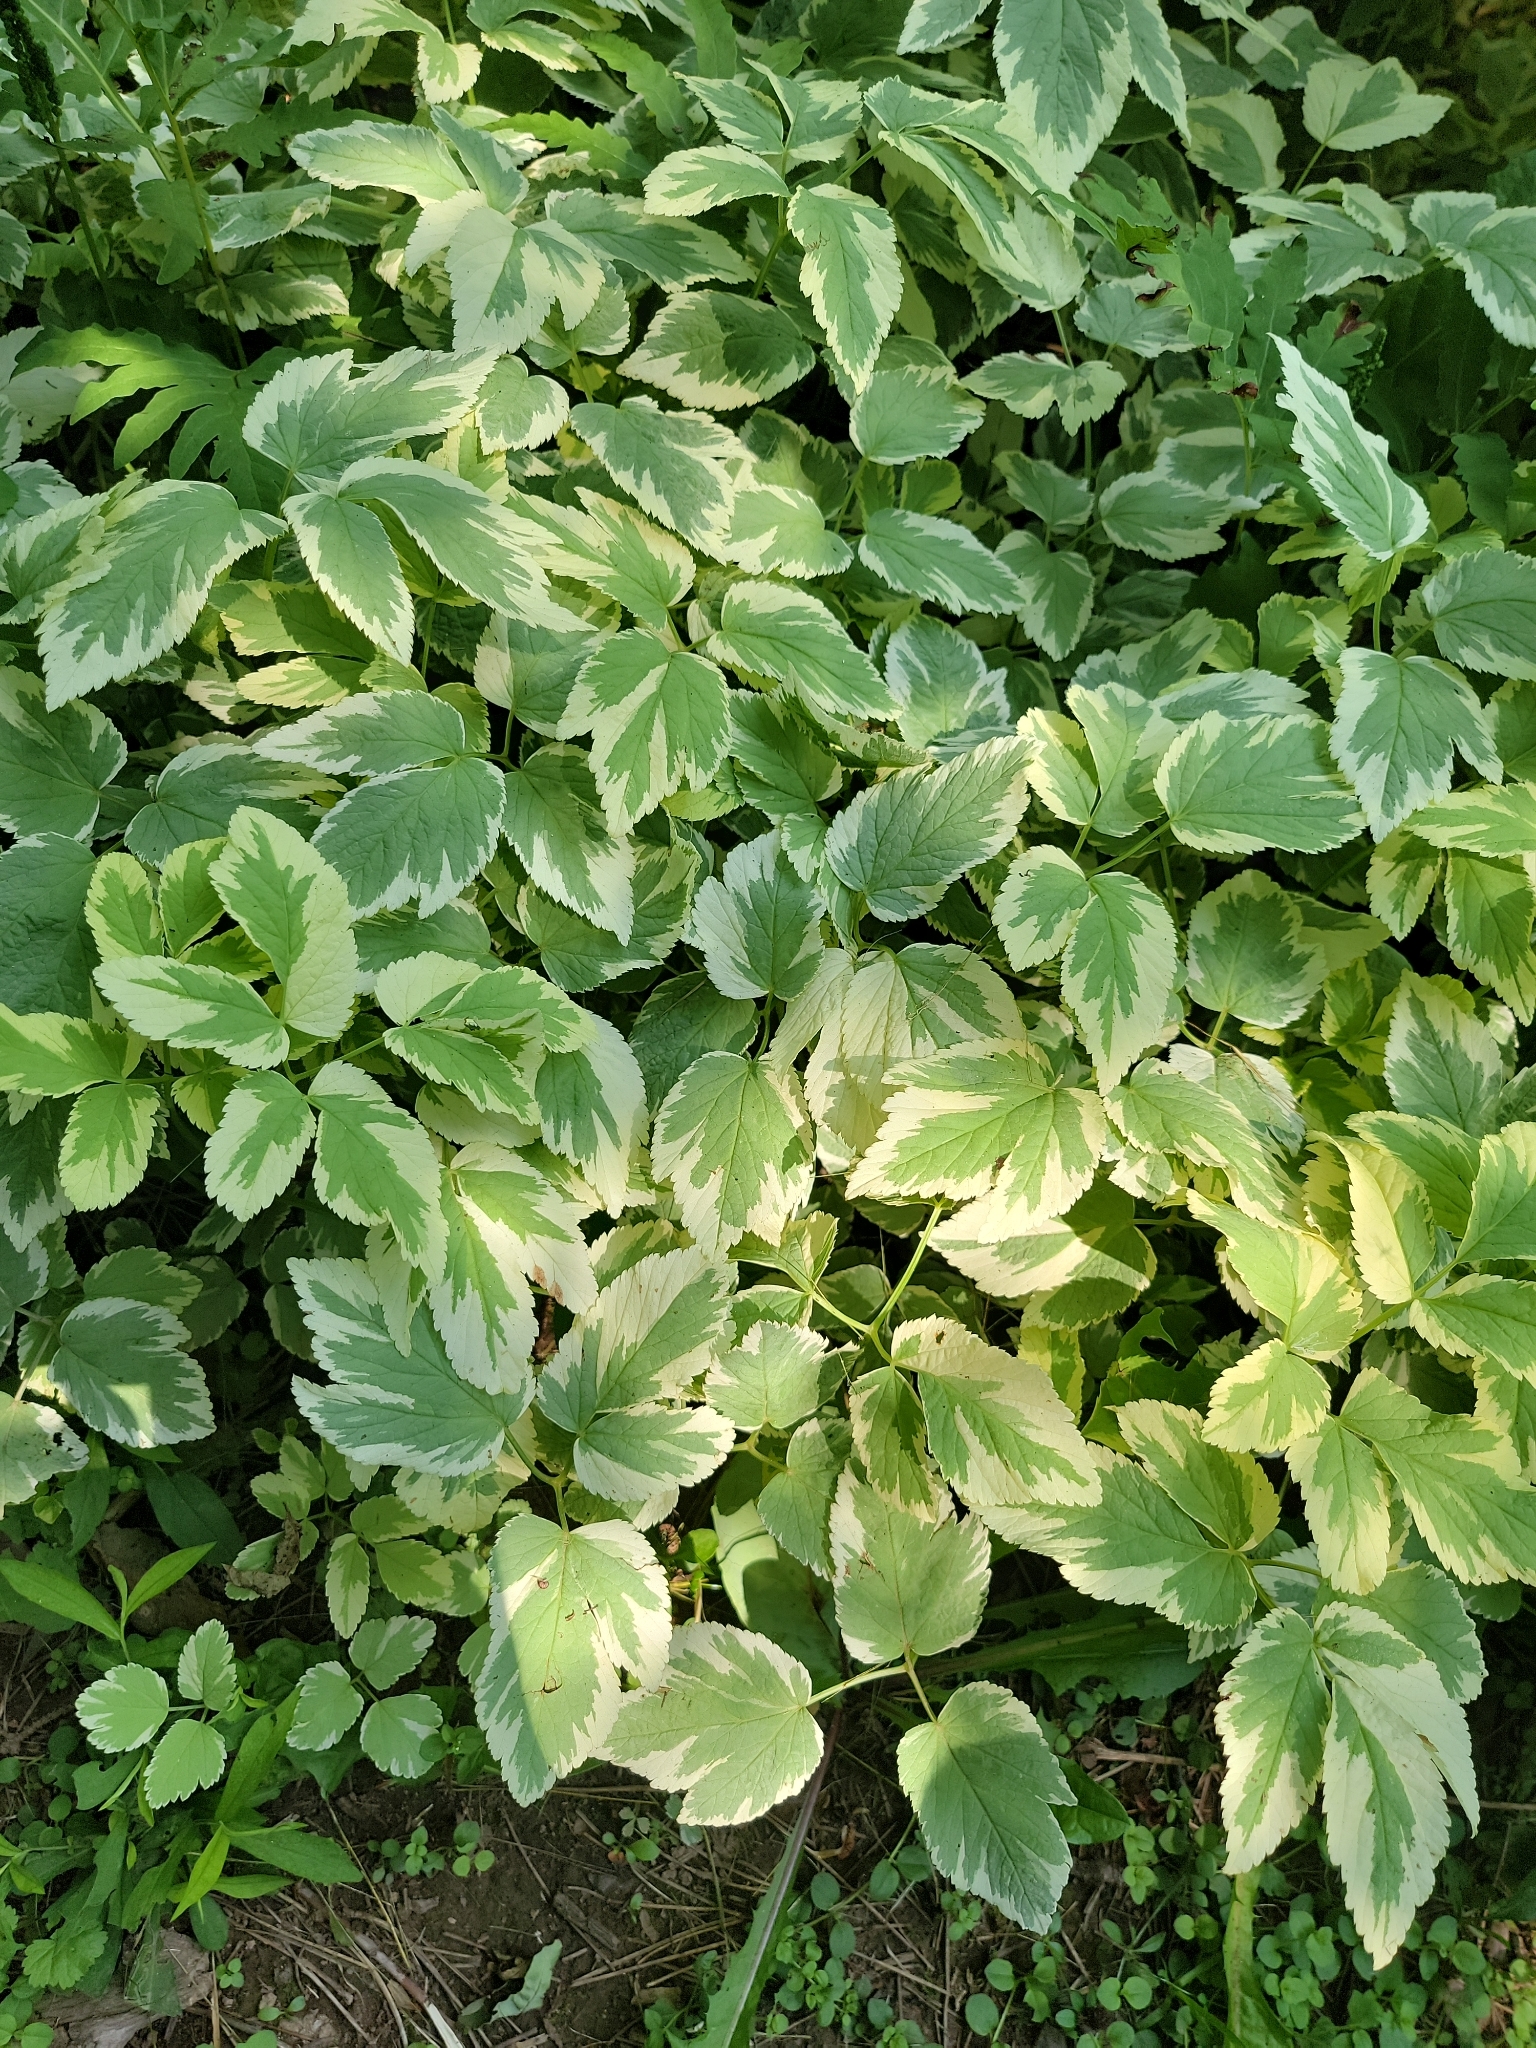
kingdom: Plantae
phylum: Tracheophyta
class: Magnoliopsida
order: Apiales
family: Apiaceae
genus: Aegopodium
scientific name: Aegopodium podagraria
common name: Ground-elder
